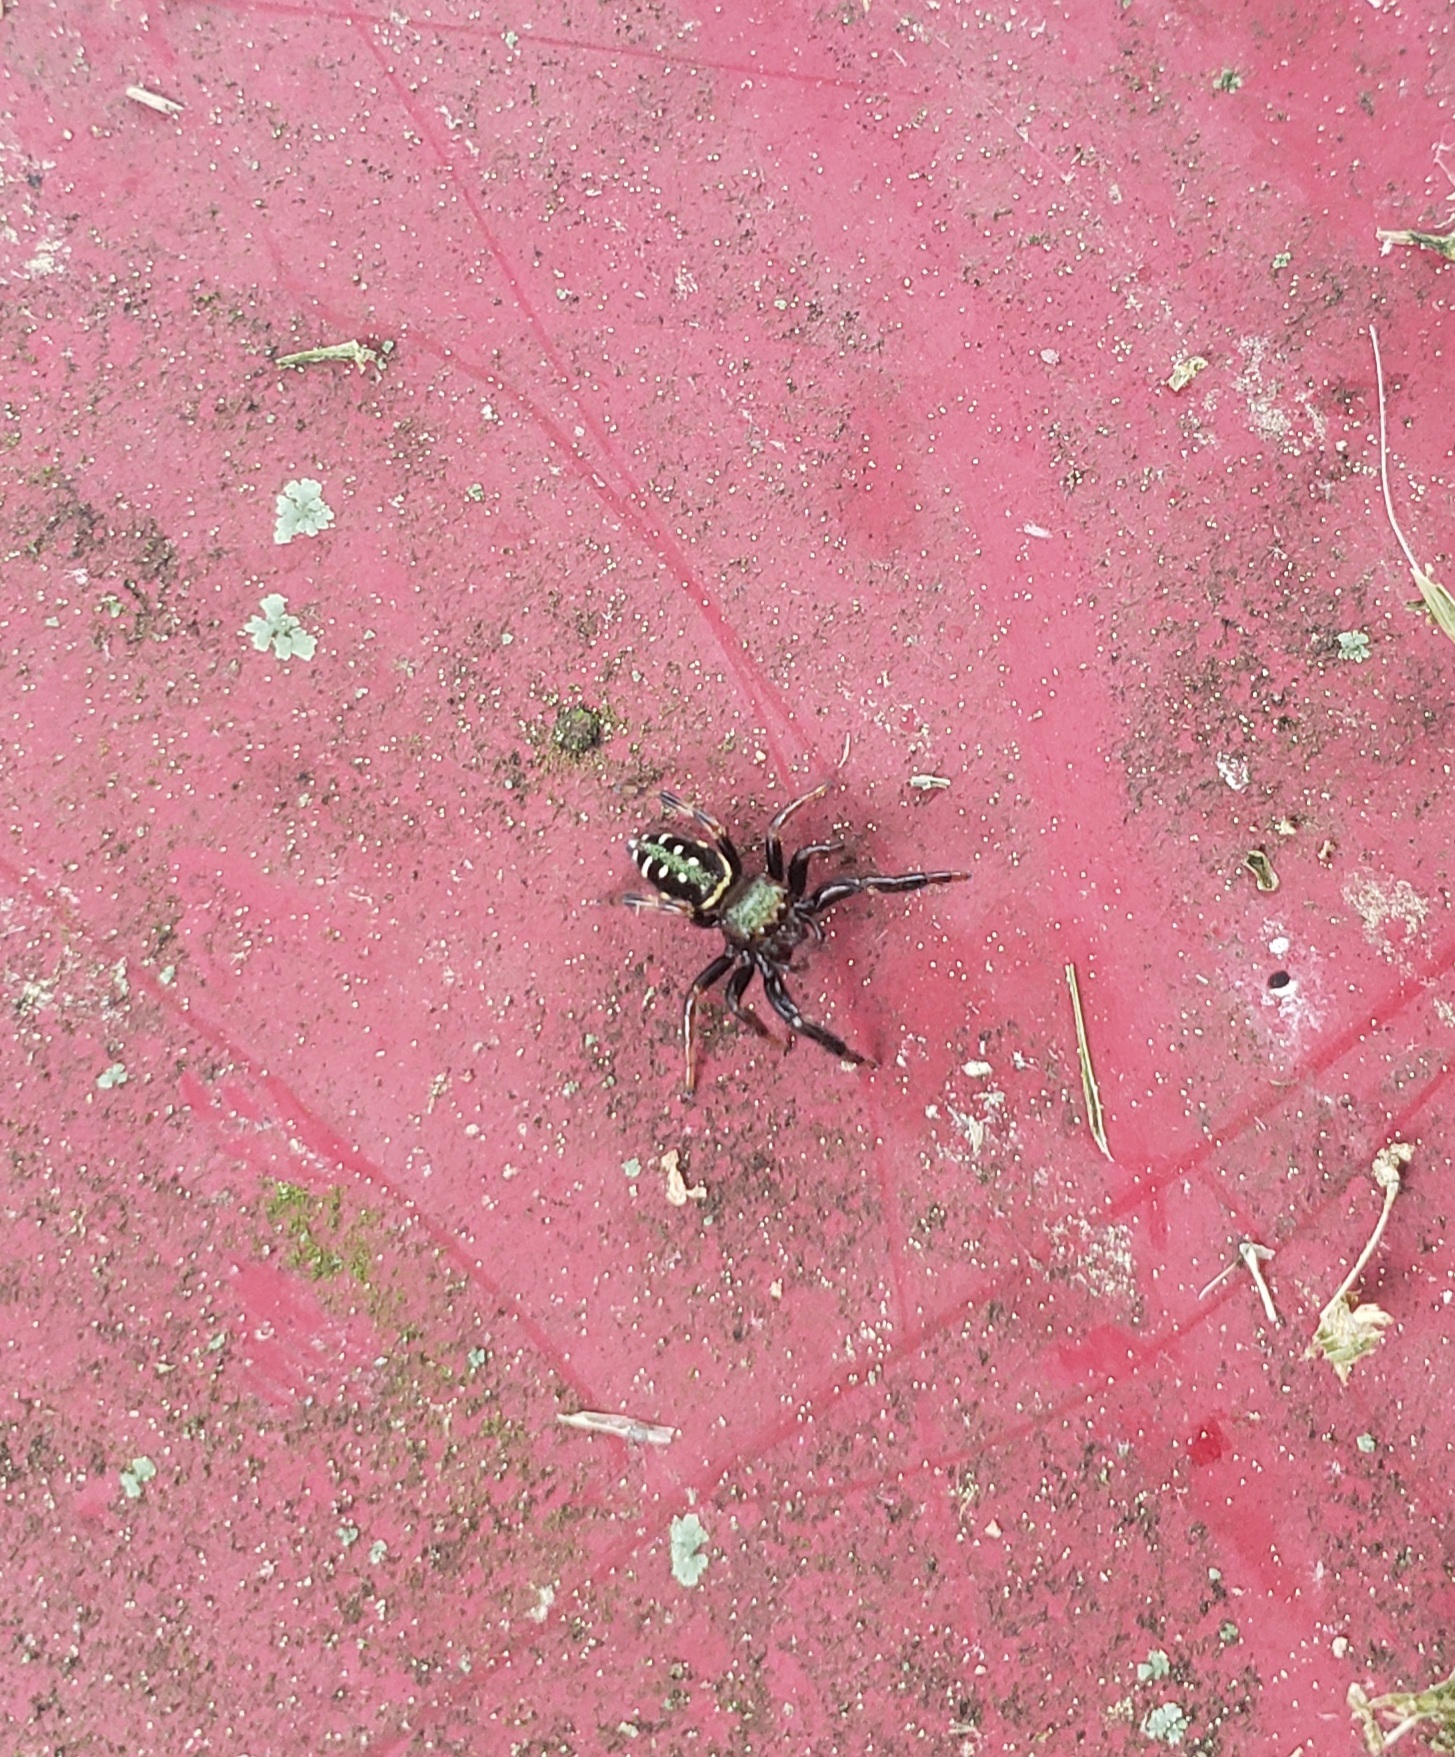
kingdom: Animalia
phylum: Arthropoda
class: Arachnida
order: Araneae
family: Salticidae
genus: Paraphidippus
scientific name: Paraphidippus aurantius
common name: Jumping spiders
